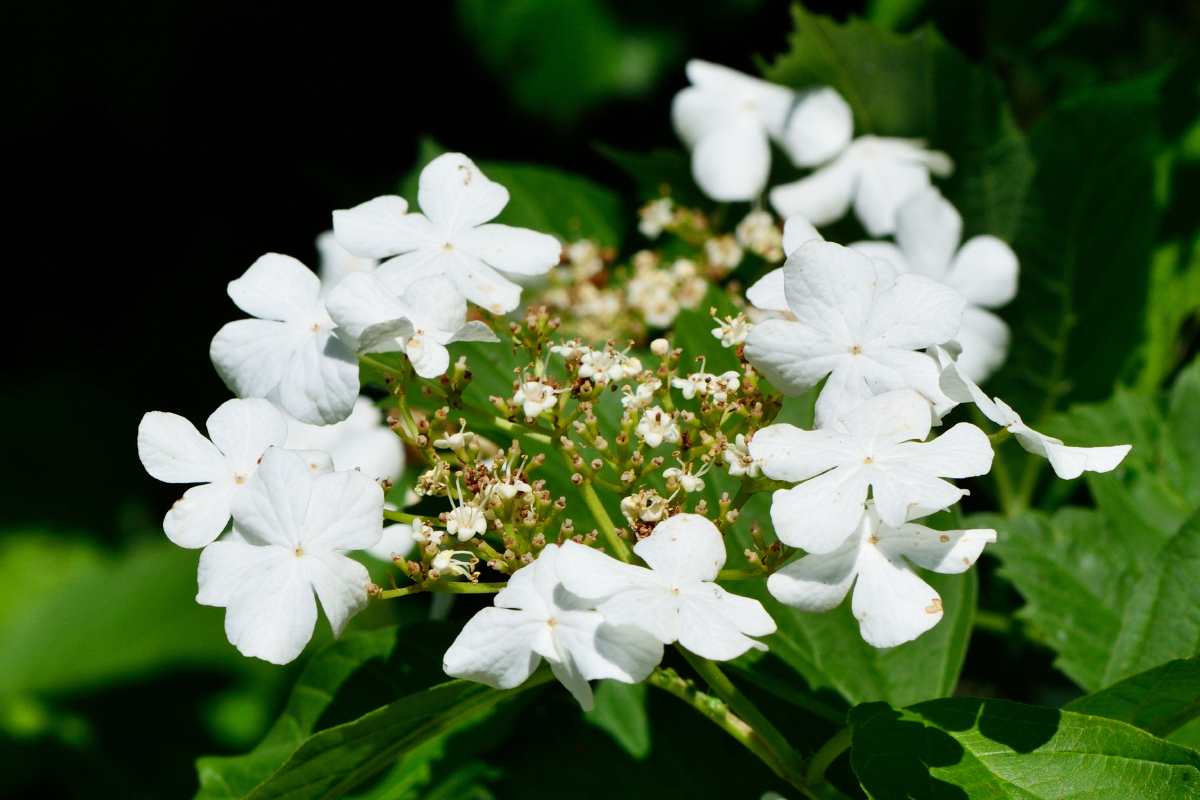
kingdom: Plantae
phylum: Tracheophyta
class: Magnoliopsida
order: Dipsacales
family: Viburnaceae
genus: Viburnum
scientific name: Viburnum opulus
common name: Guelder-rose
